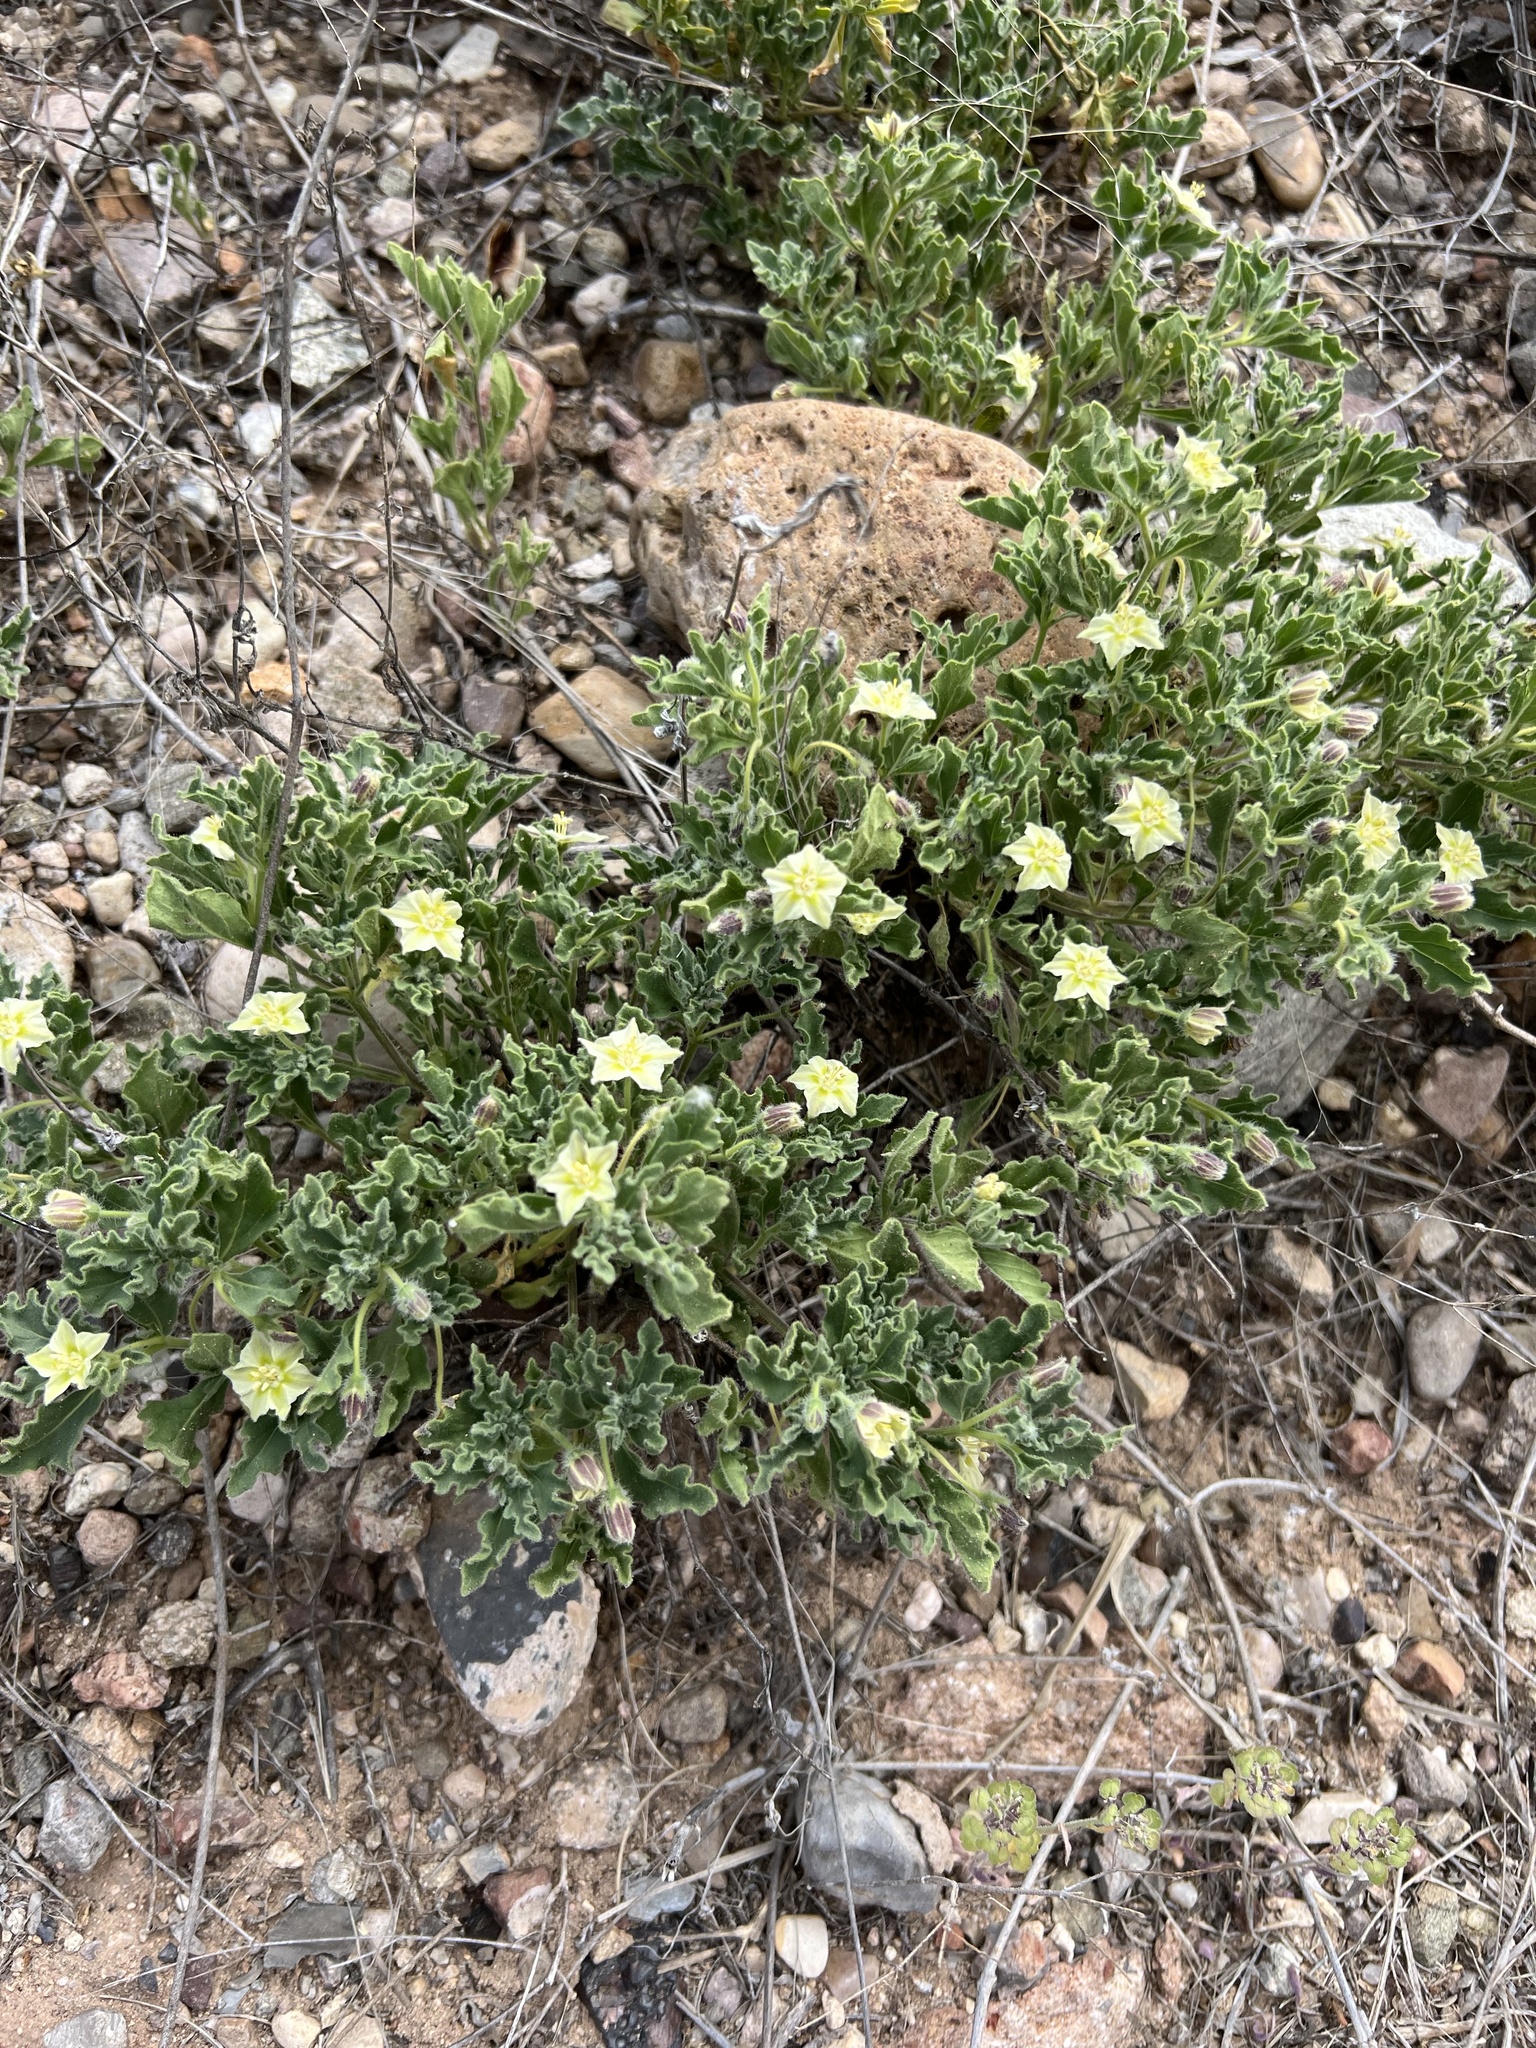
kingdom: Plantae
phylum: Tracheophyta
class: Magnoliopsida
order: Solanales
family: Solanaceae
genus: Chamaesaracha
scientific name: Chamaesaracha sordida
